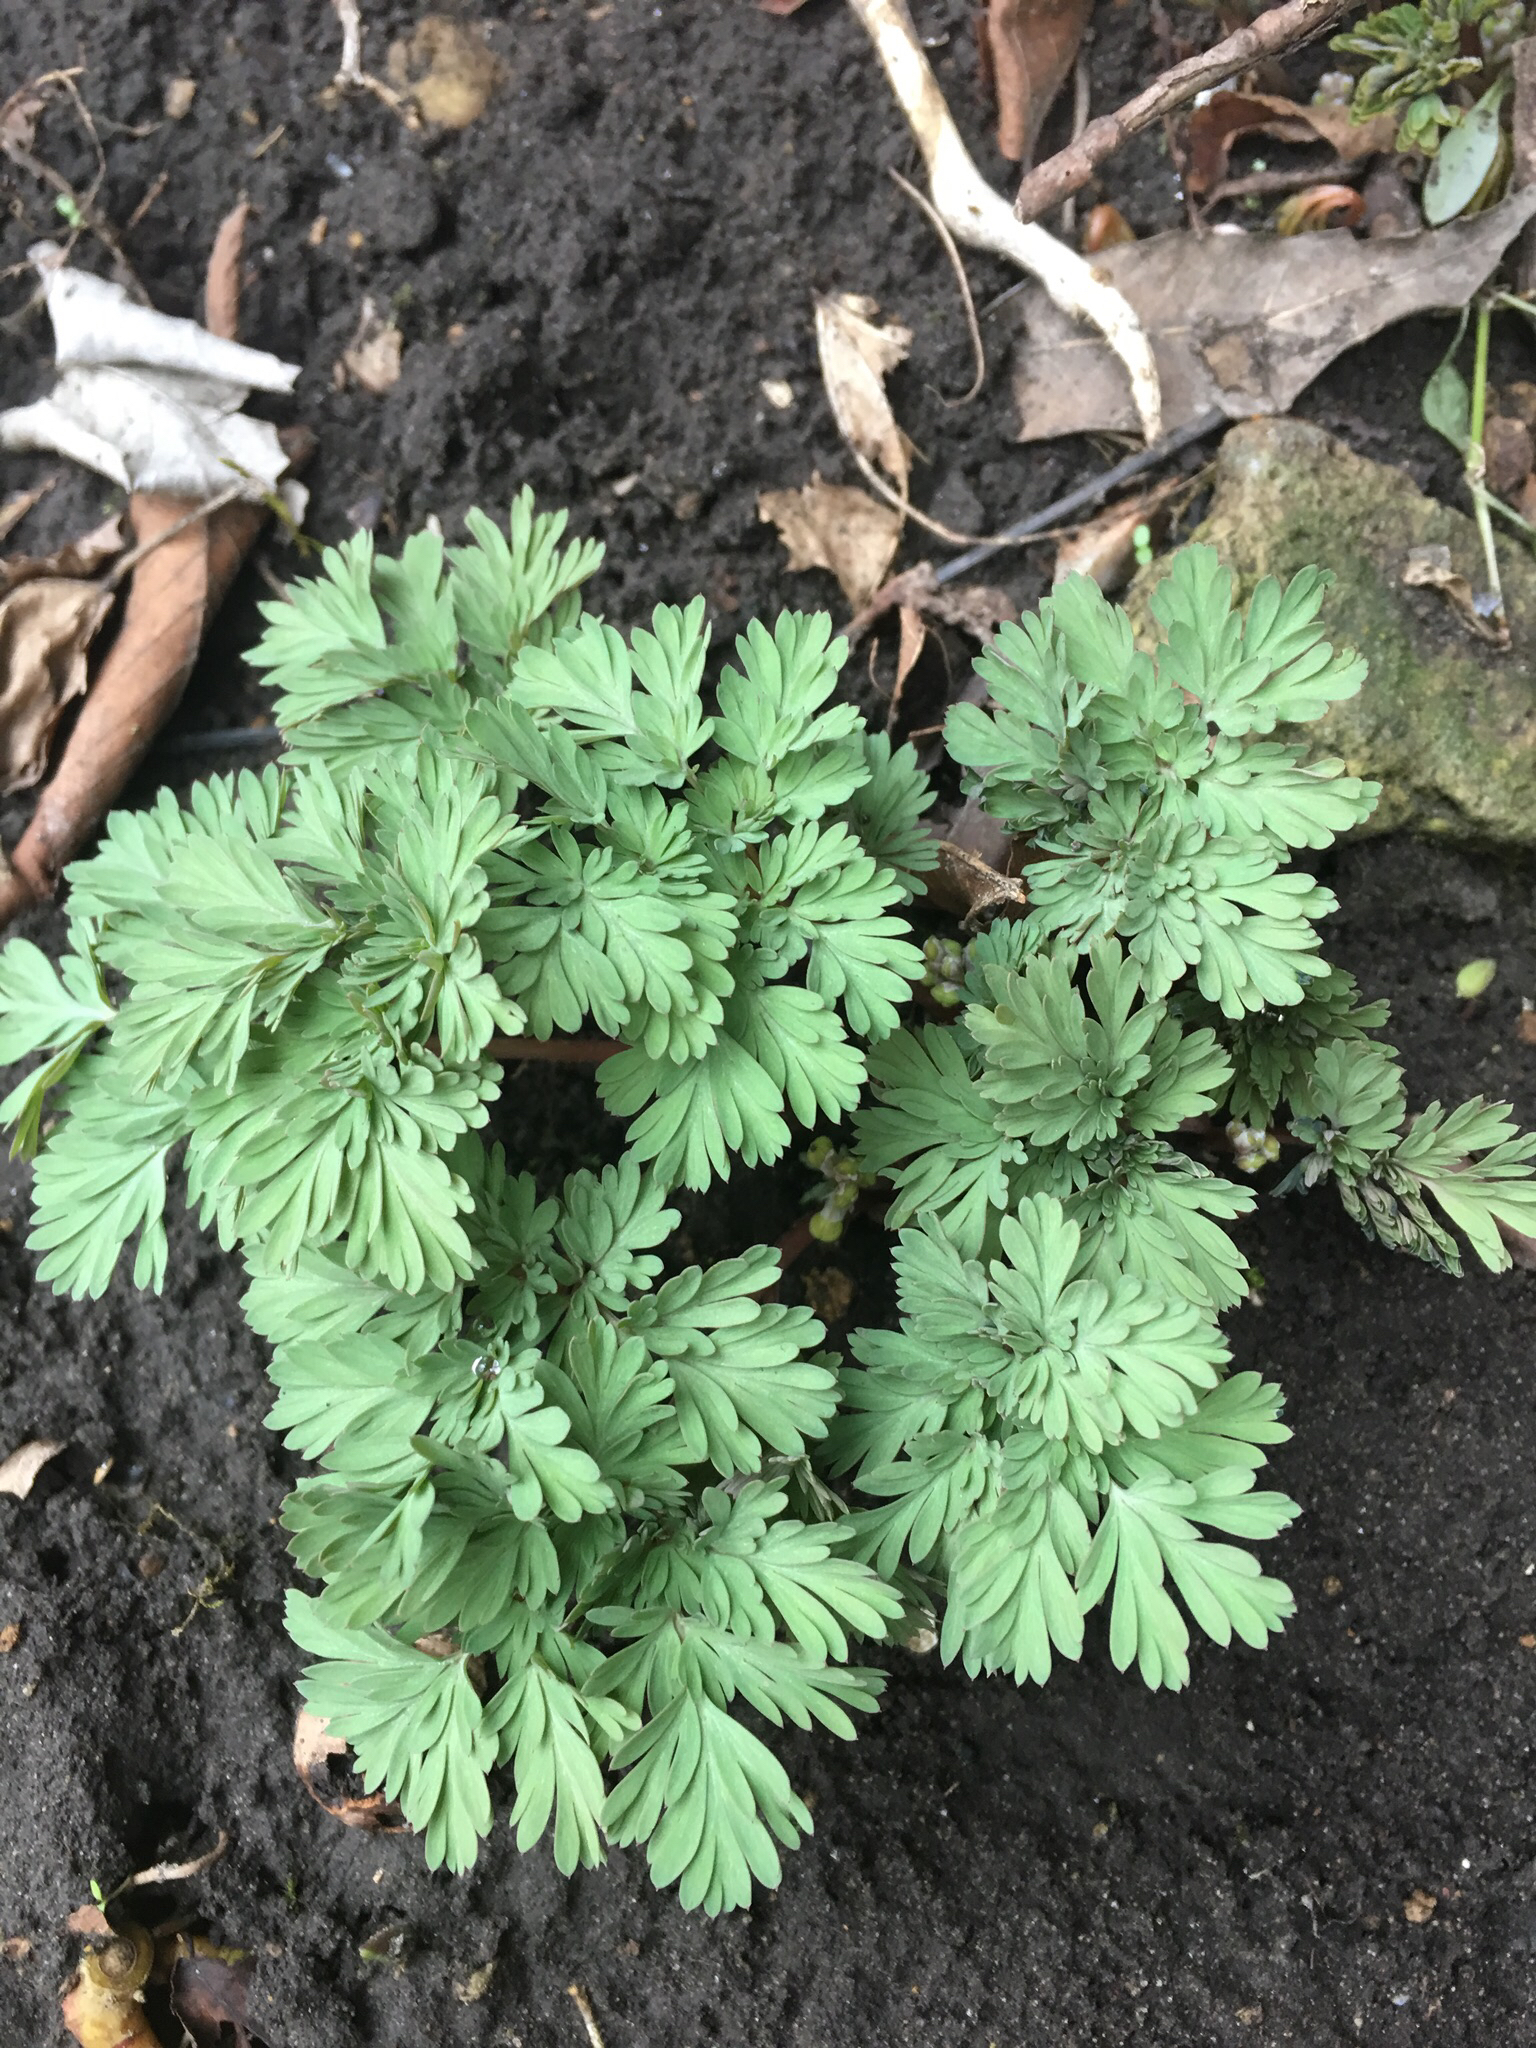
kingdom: Plantae
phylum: Tracheophyta
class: Magnoliopsida
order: Ranunculales
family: Papaveraceae
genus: Dicentra
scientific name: Dicentra cucullaria
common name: Dutchman's breeches
